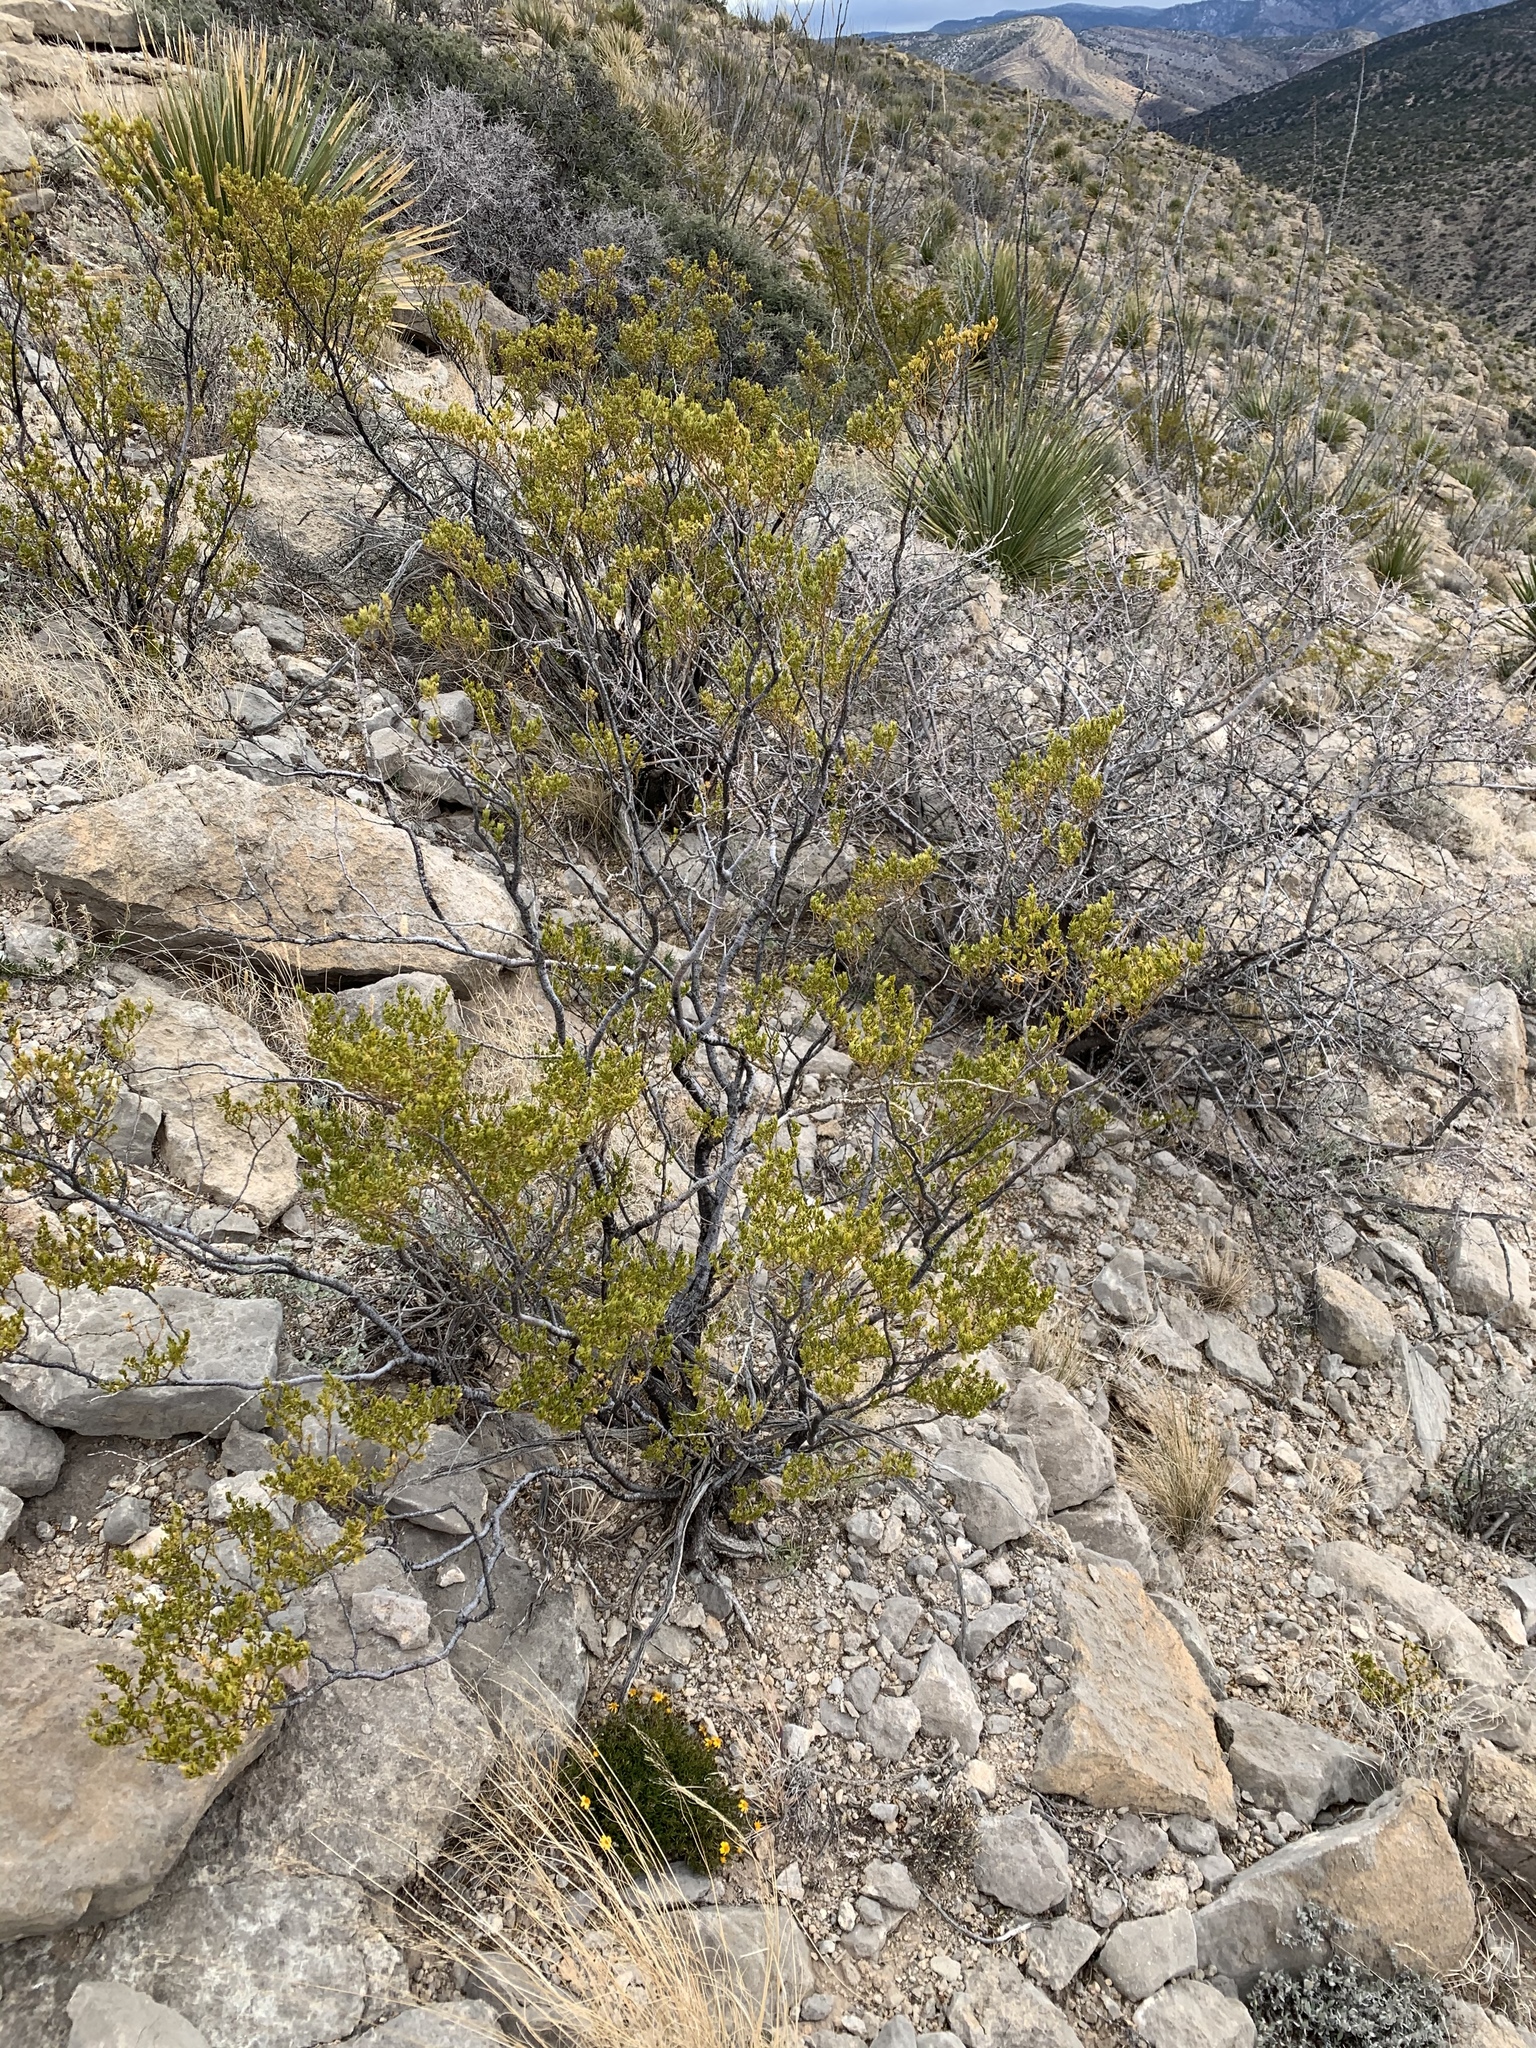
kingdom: Plantae
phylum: Tracheophyta
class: Magnoliopsida
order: Zygophyllales
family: Zygophyllaceae
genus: Larrea
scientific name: Larrea tridentata
